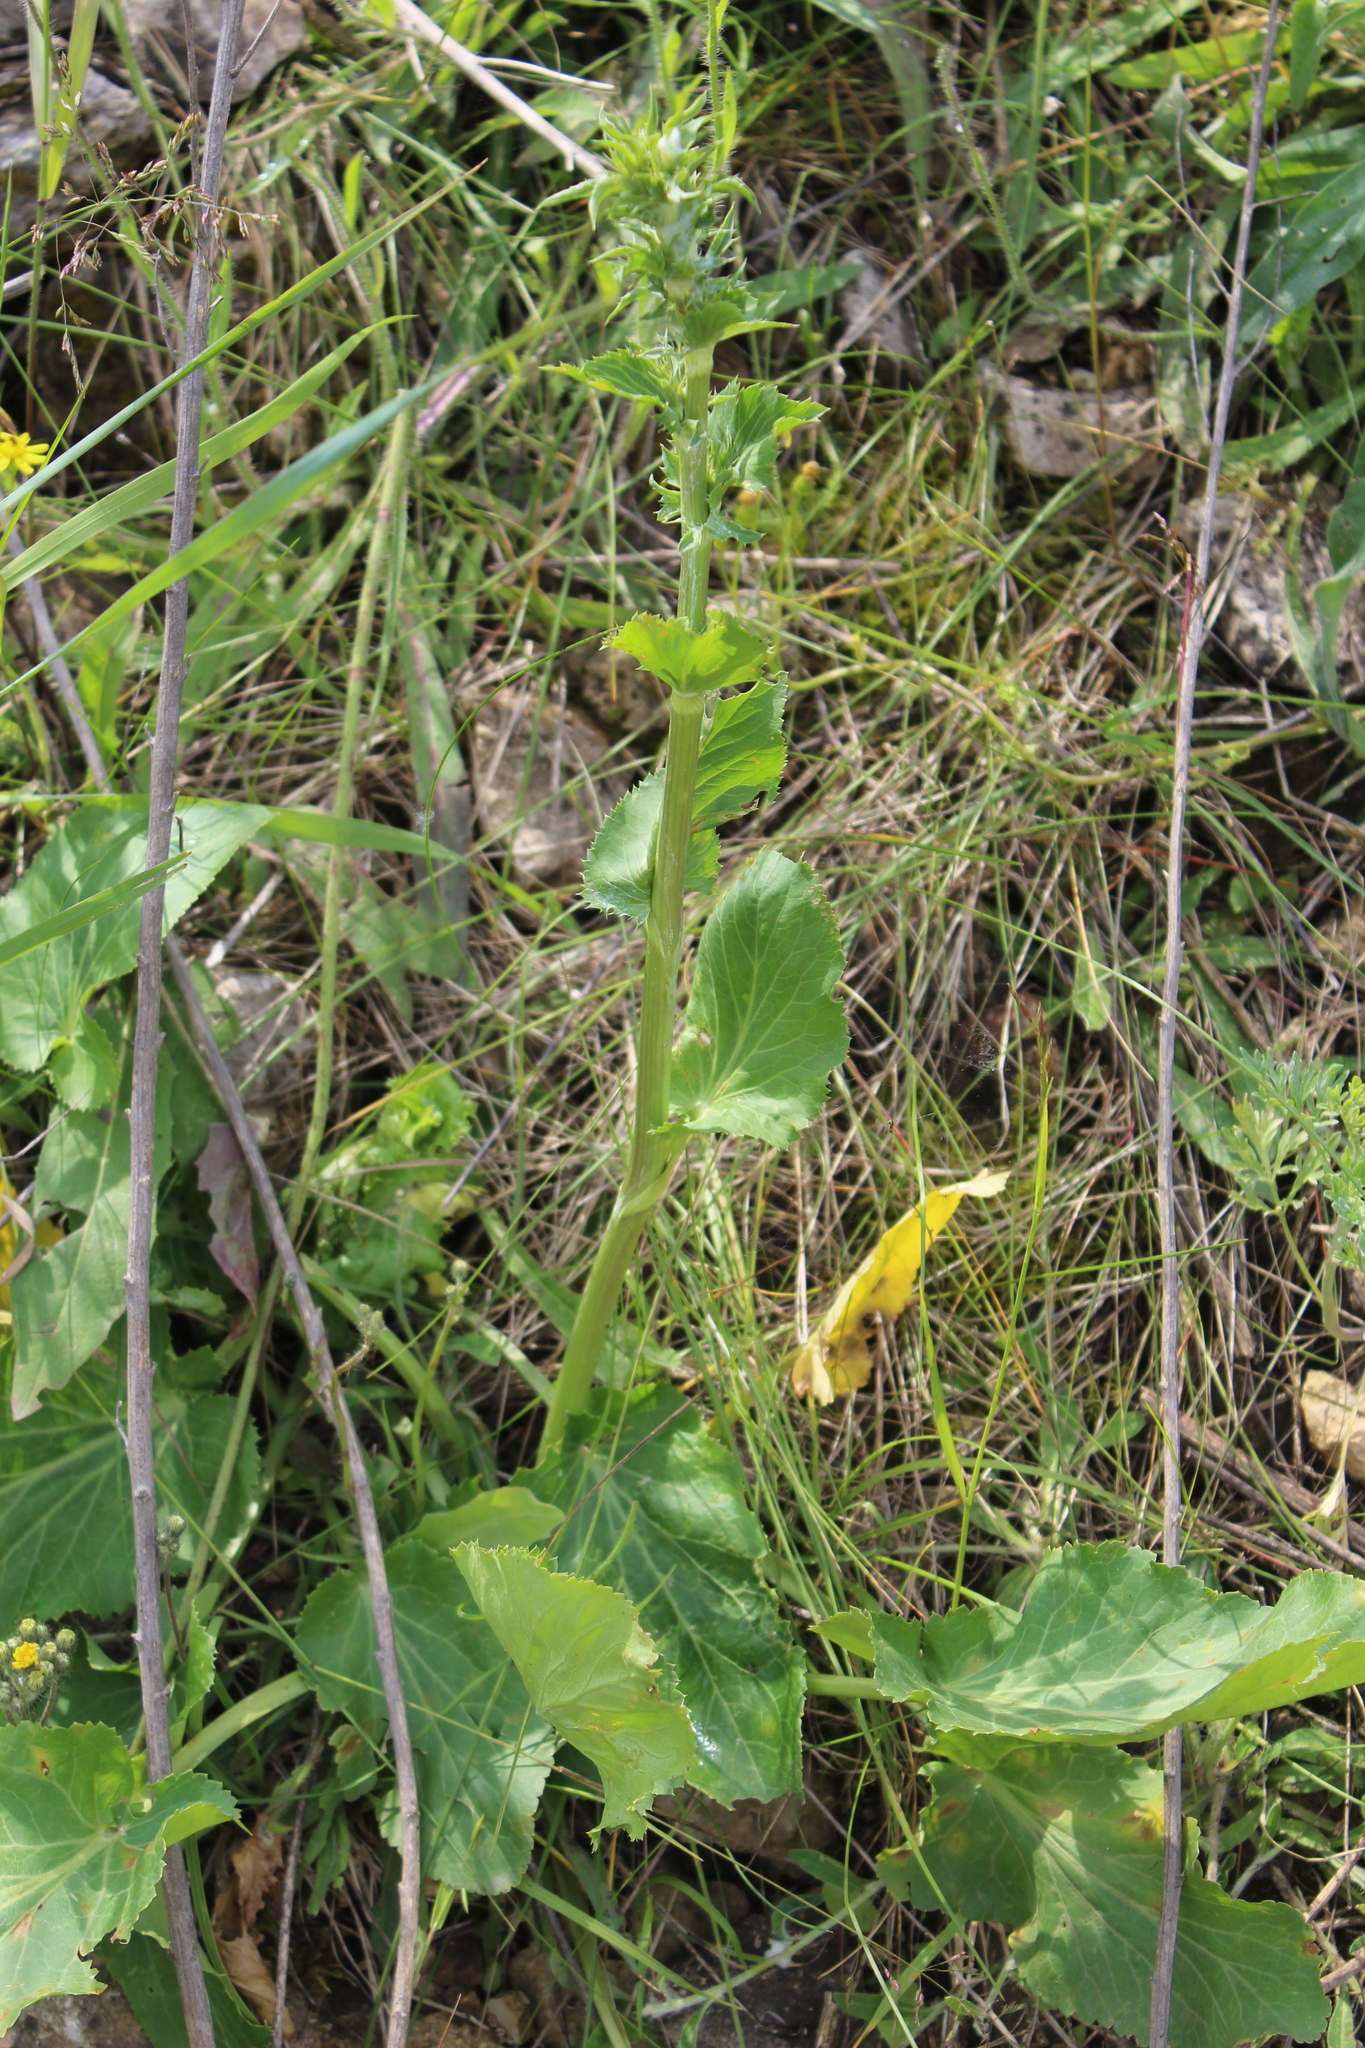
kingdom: Plantae
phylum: Tracheophyta
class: Magnoliopsida
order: Apiales
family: Apiaceae
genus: Eryngium
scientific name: Eryngium planum
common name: Blue eryngo
